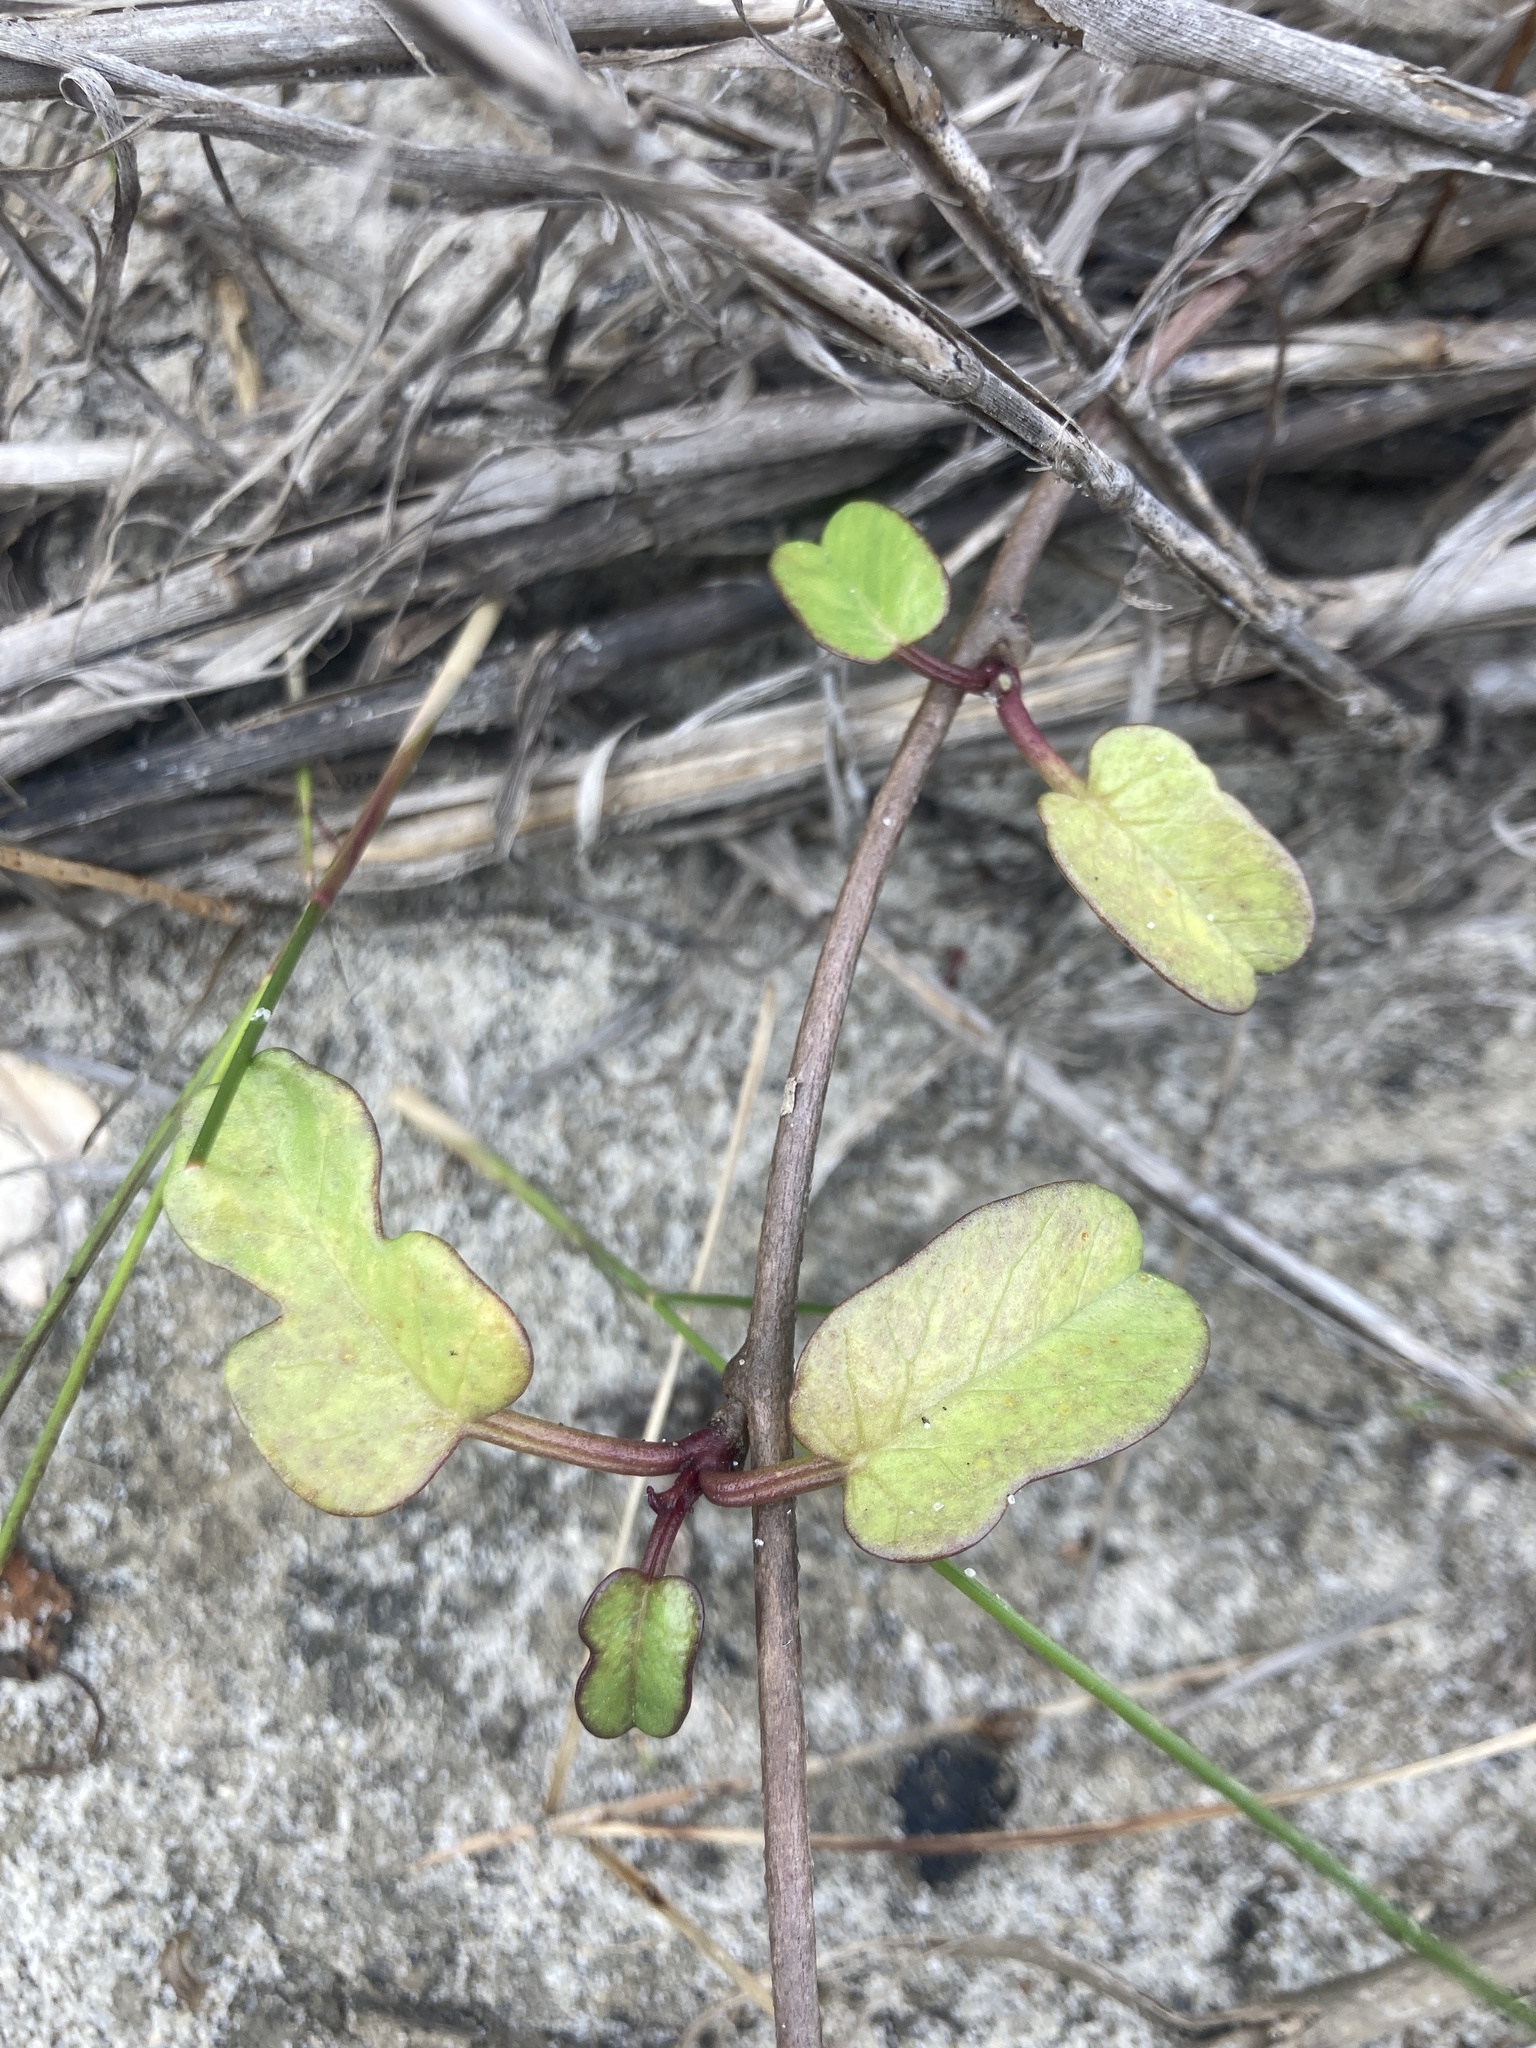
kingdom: Plantae
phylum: Tracheophyta
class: Magnoliopsida
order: Solanales
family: Convolvulaceae
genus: Ipomoea
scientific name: Ipomoea imperati
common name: Fiddle-leaf morning-glory
